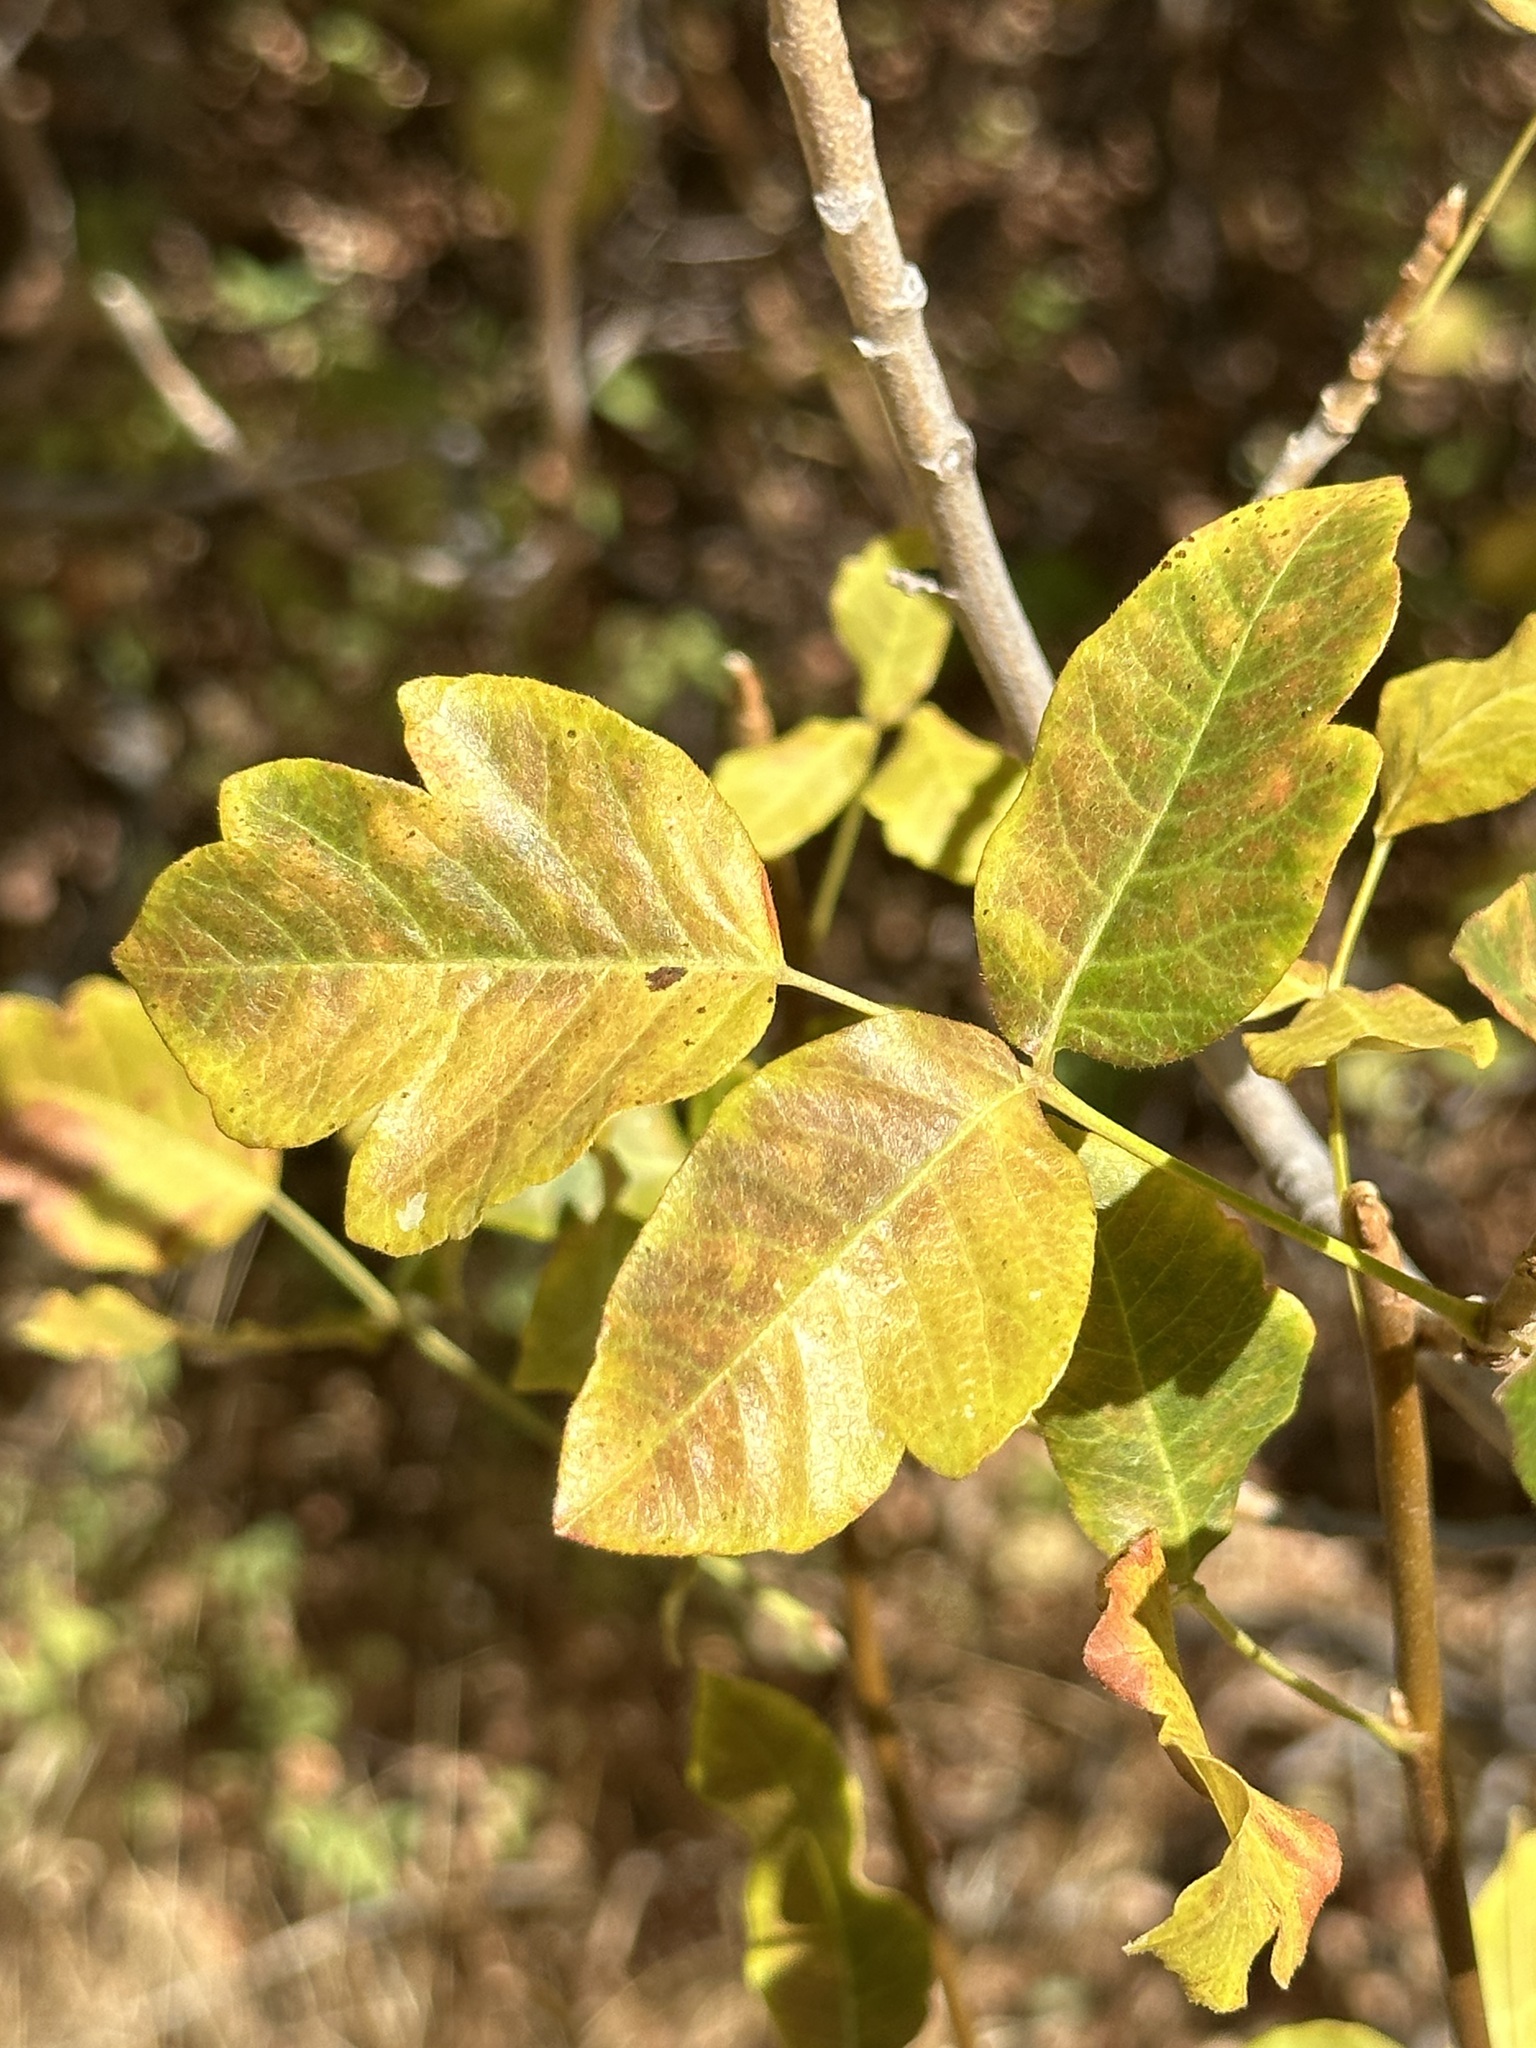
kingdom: Plantae
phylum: Tracheophyta
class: Magnoliopsida
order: Sapindales
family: Anacardiaceae
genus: Toxicodendron
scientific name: Toxicodendron diversilobum
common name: Pacific poison-oak
